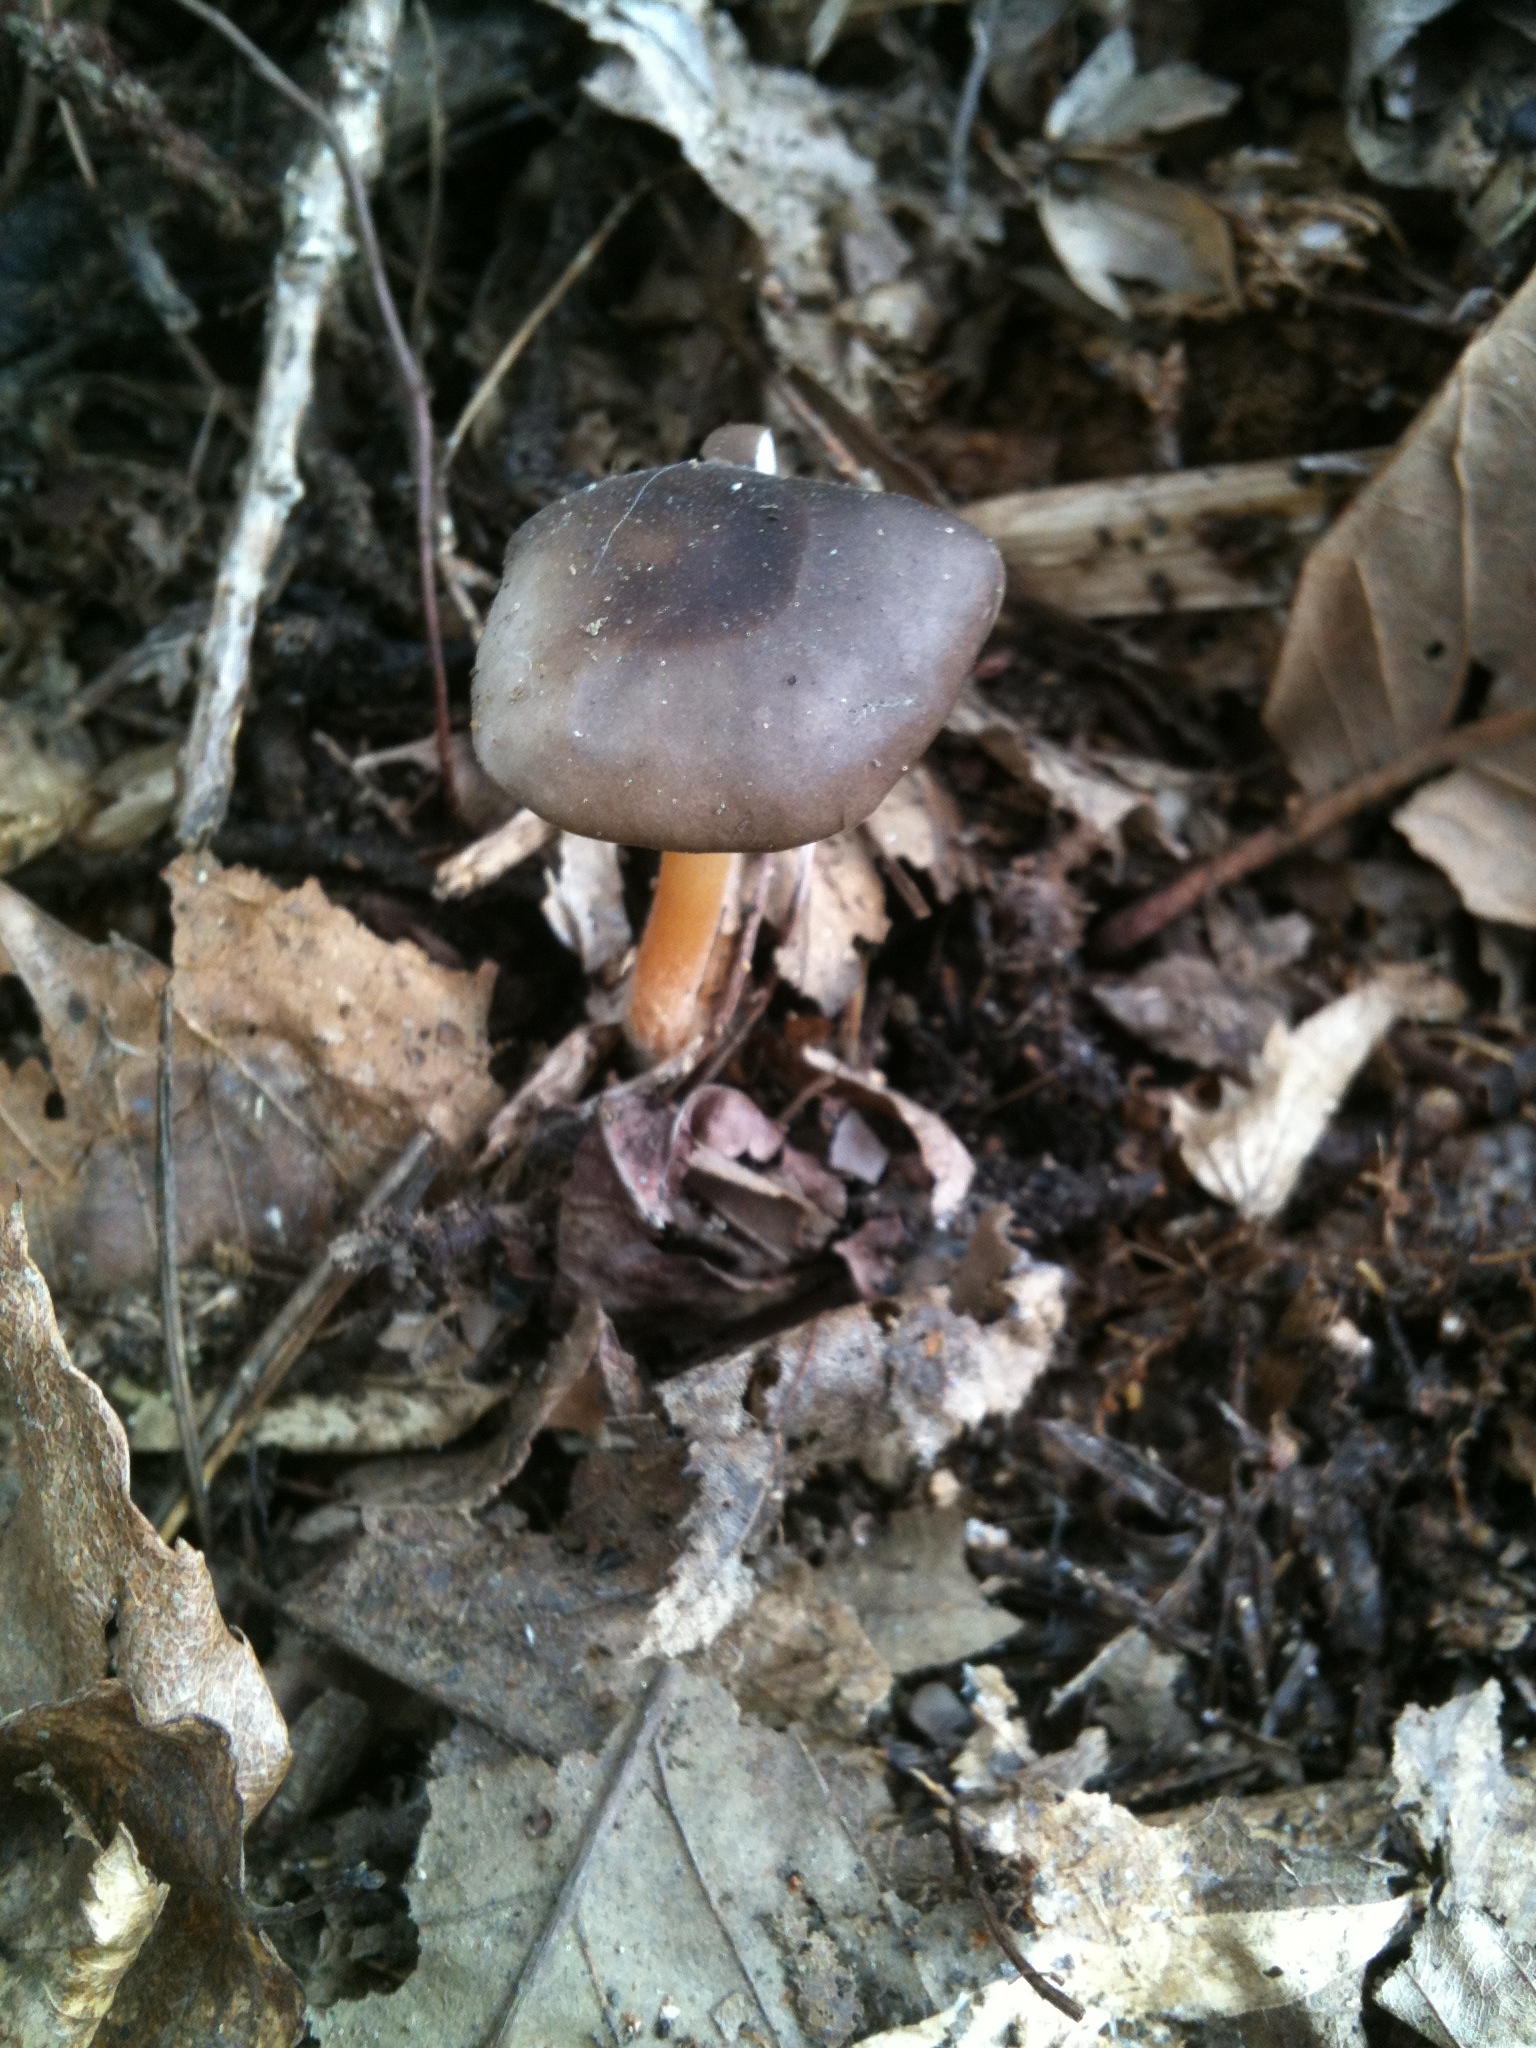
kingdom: Fungi
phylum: Basidiomycota
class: Agaricomycetes
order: Agaricales
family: Physalacriaceae
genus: Strobilurus
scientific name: Strobilurus stephanocystis
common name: Russian conecap
